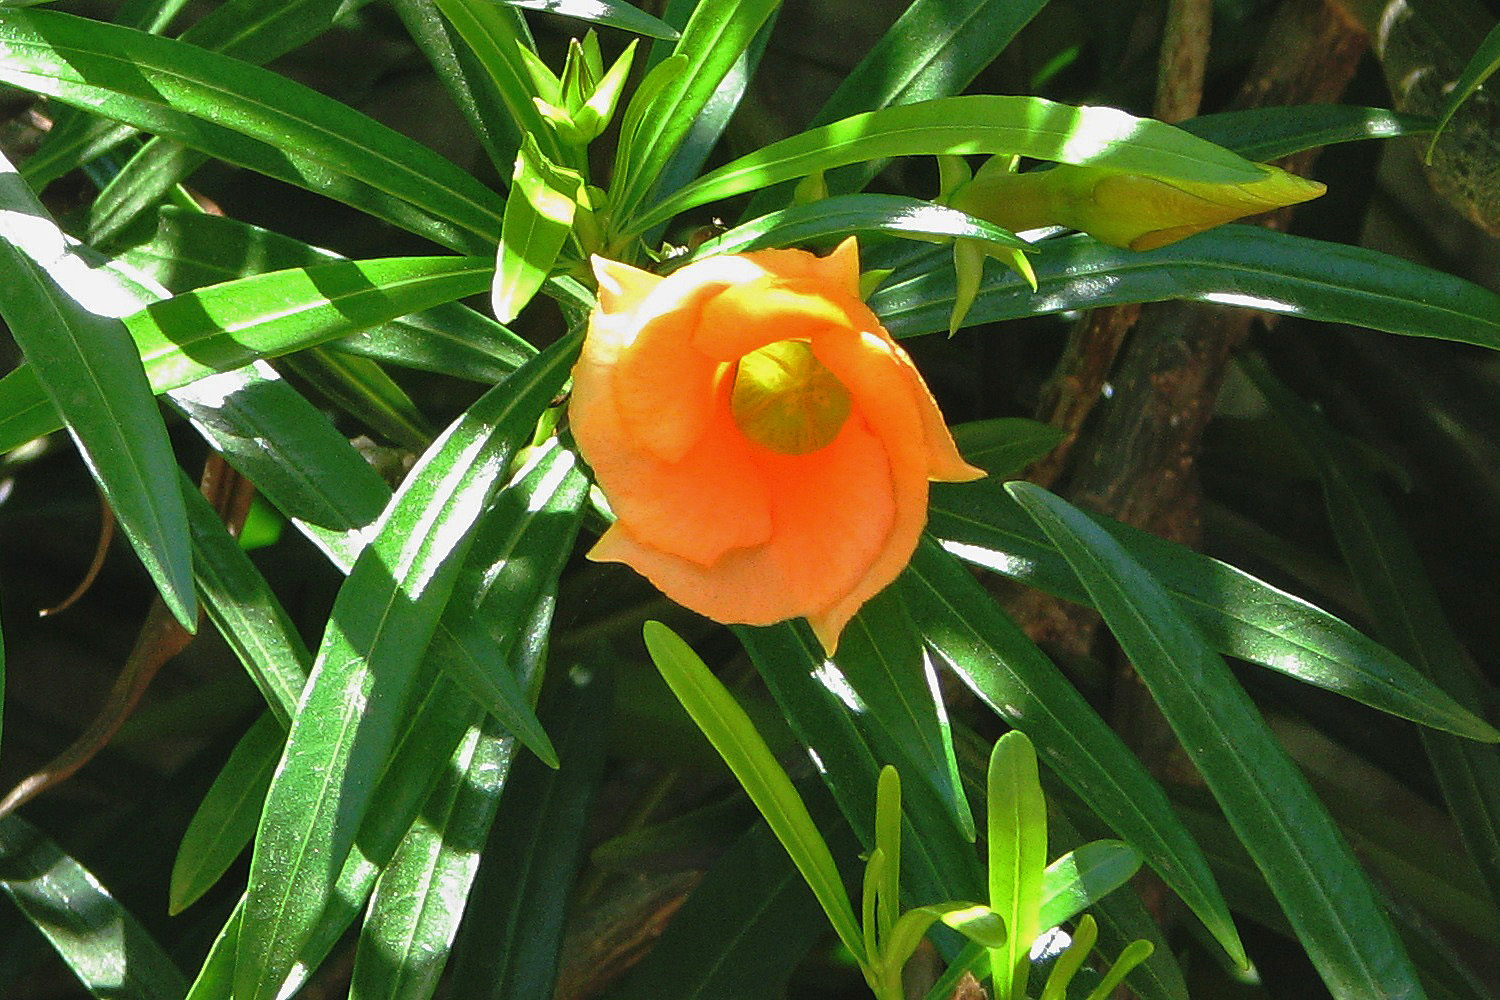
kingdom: Plantae
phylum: Tracheophyta
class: Magnoliopsida
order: Gentianales
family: Apocynaceae
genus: Cascabela
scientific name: Cascabela thevetia
